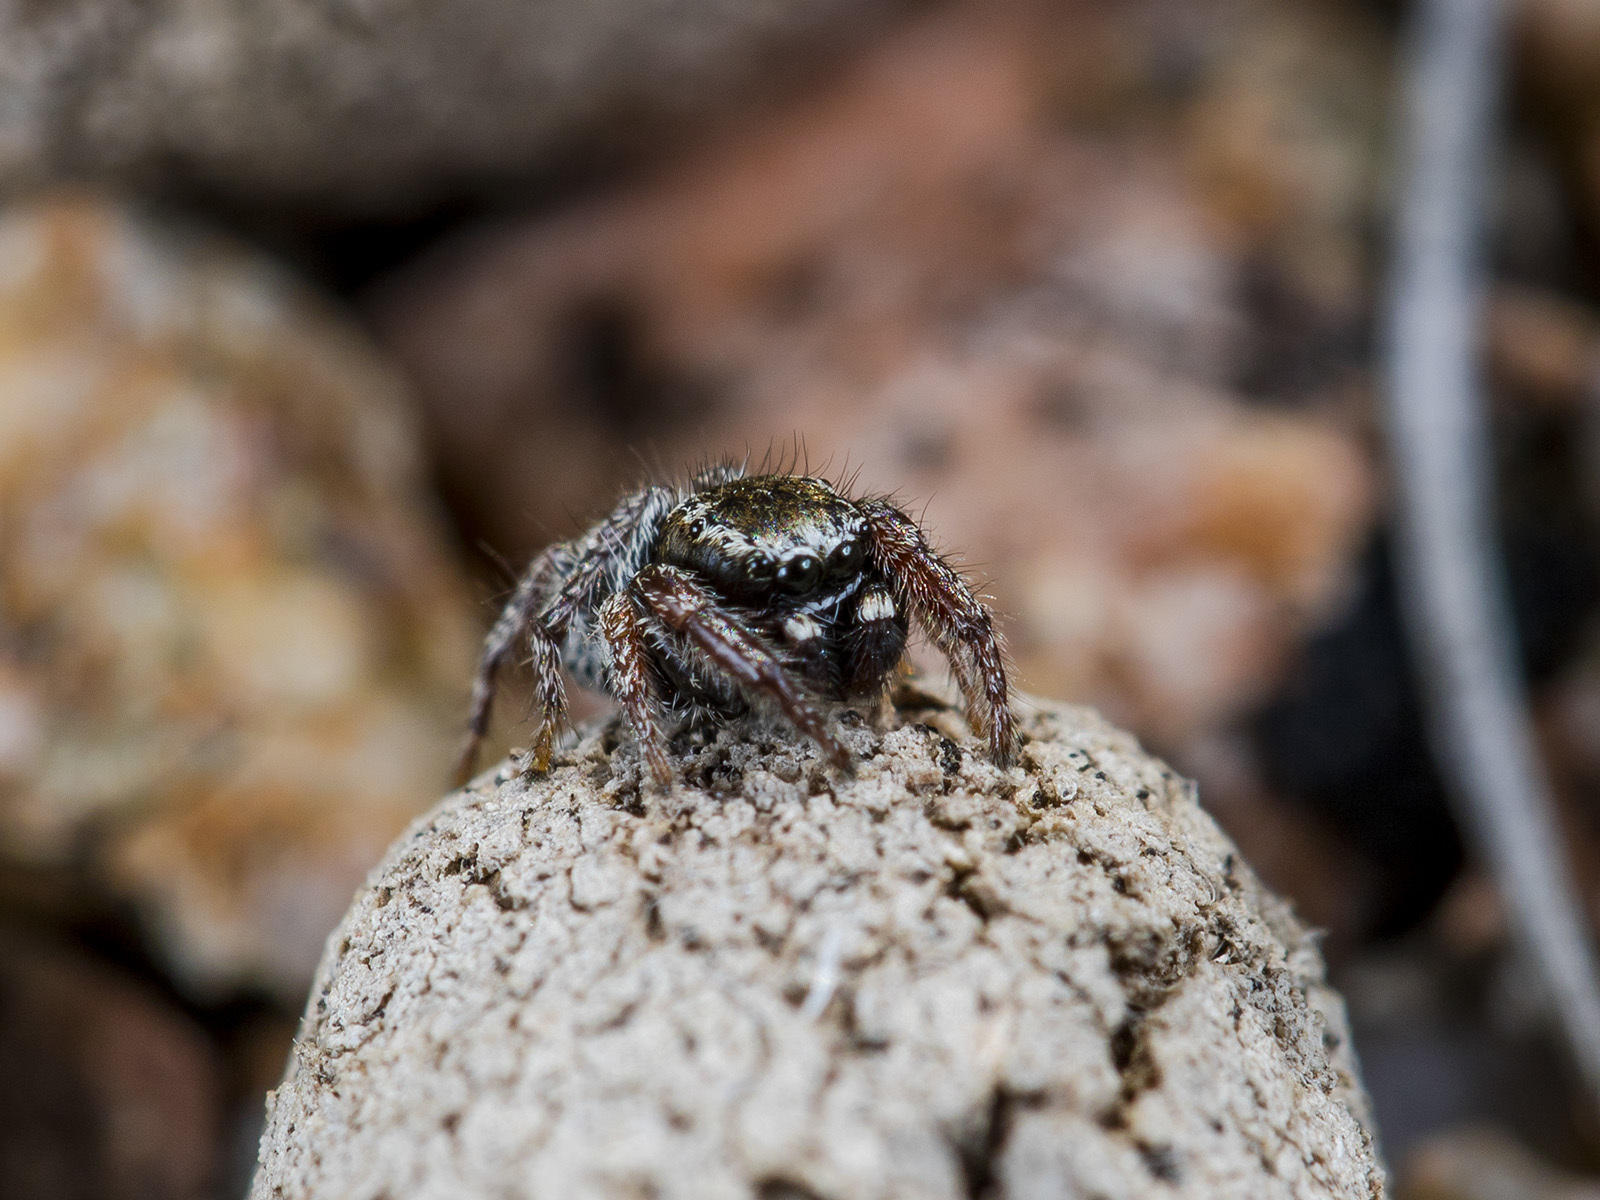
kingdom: Animalia
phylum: Arthropoda
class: Arachnida
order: Araneae
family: Salticidae
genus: Pellenes
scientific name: Pellenes epularis
